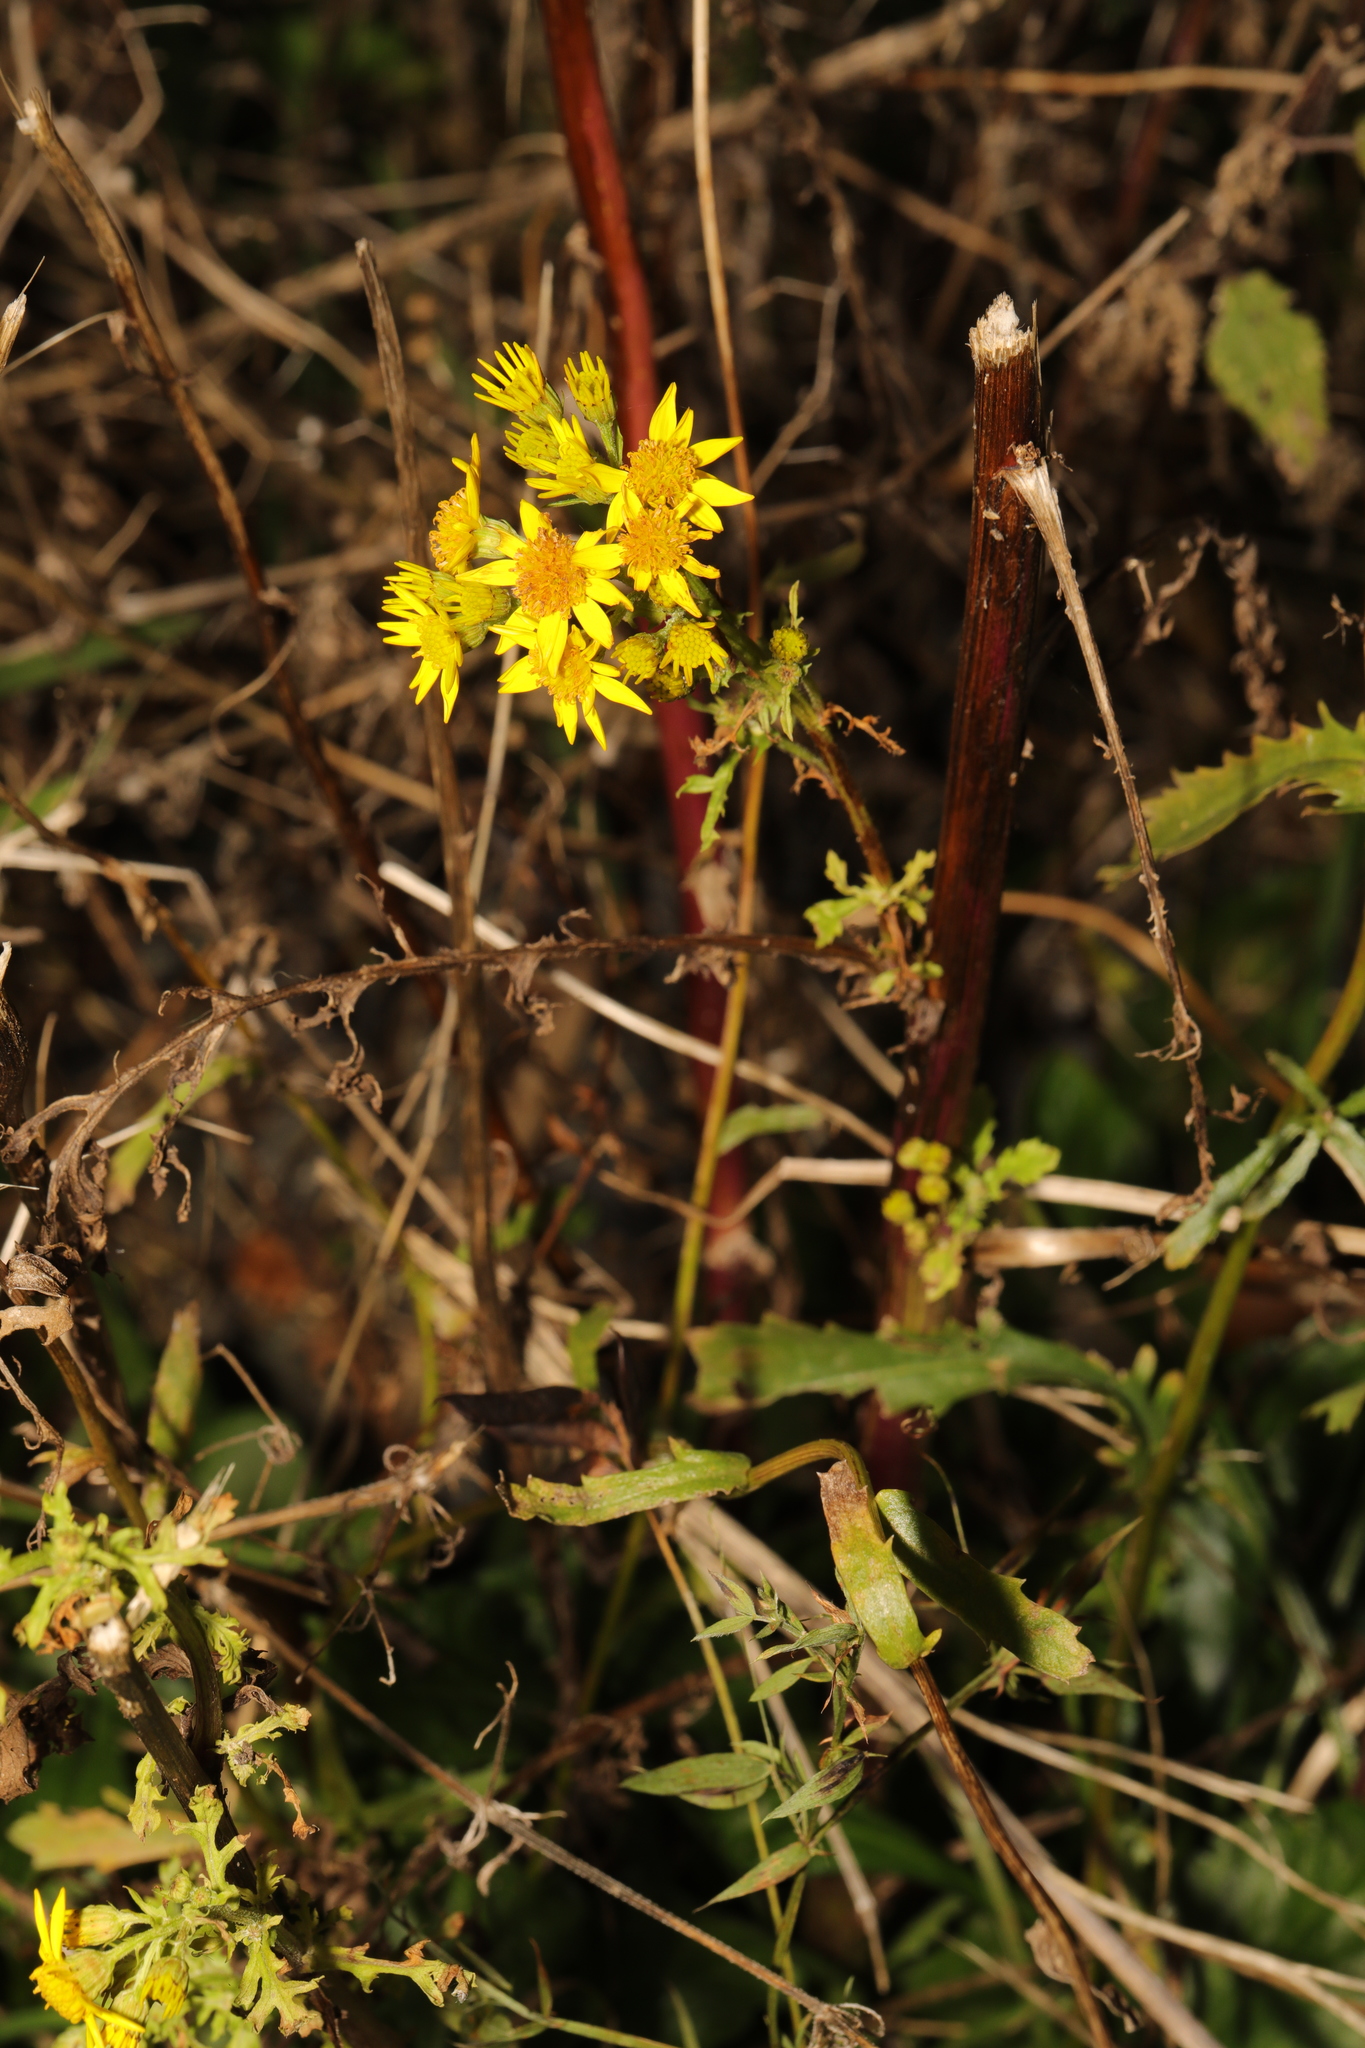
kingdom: Plantae
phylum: Tracheophyta
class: Magnoliopsida
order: Asterales
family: Asteraceae
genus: Jacobaea
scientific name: Jacobaea vulgaris
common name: Stinking willie
